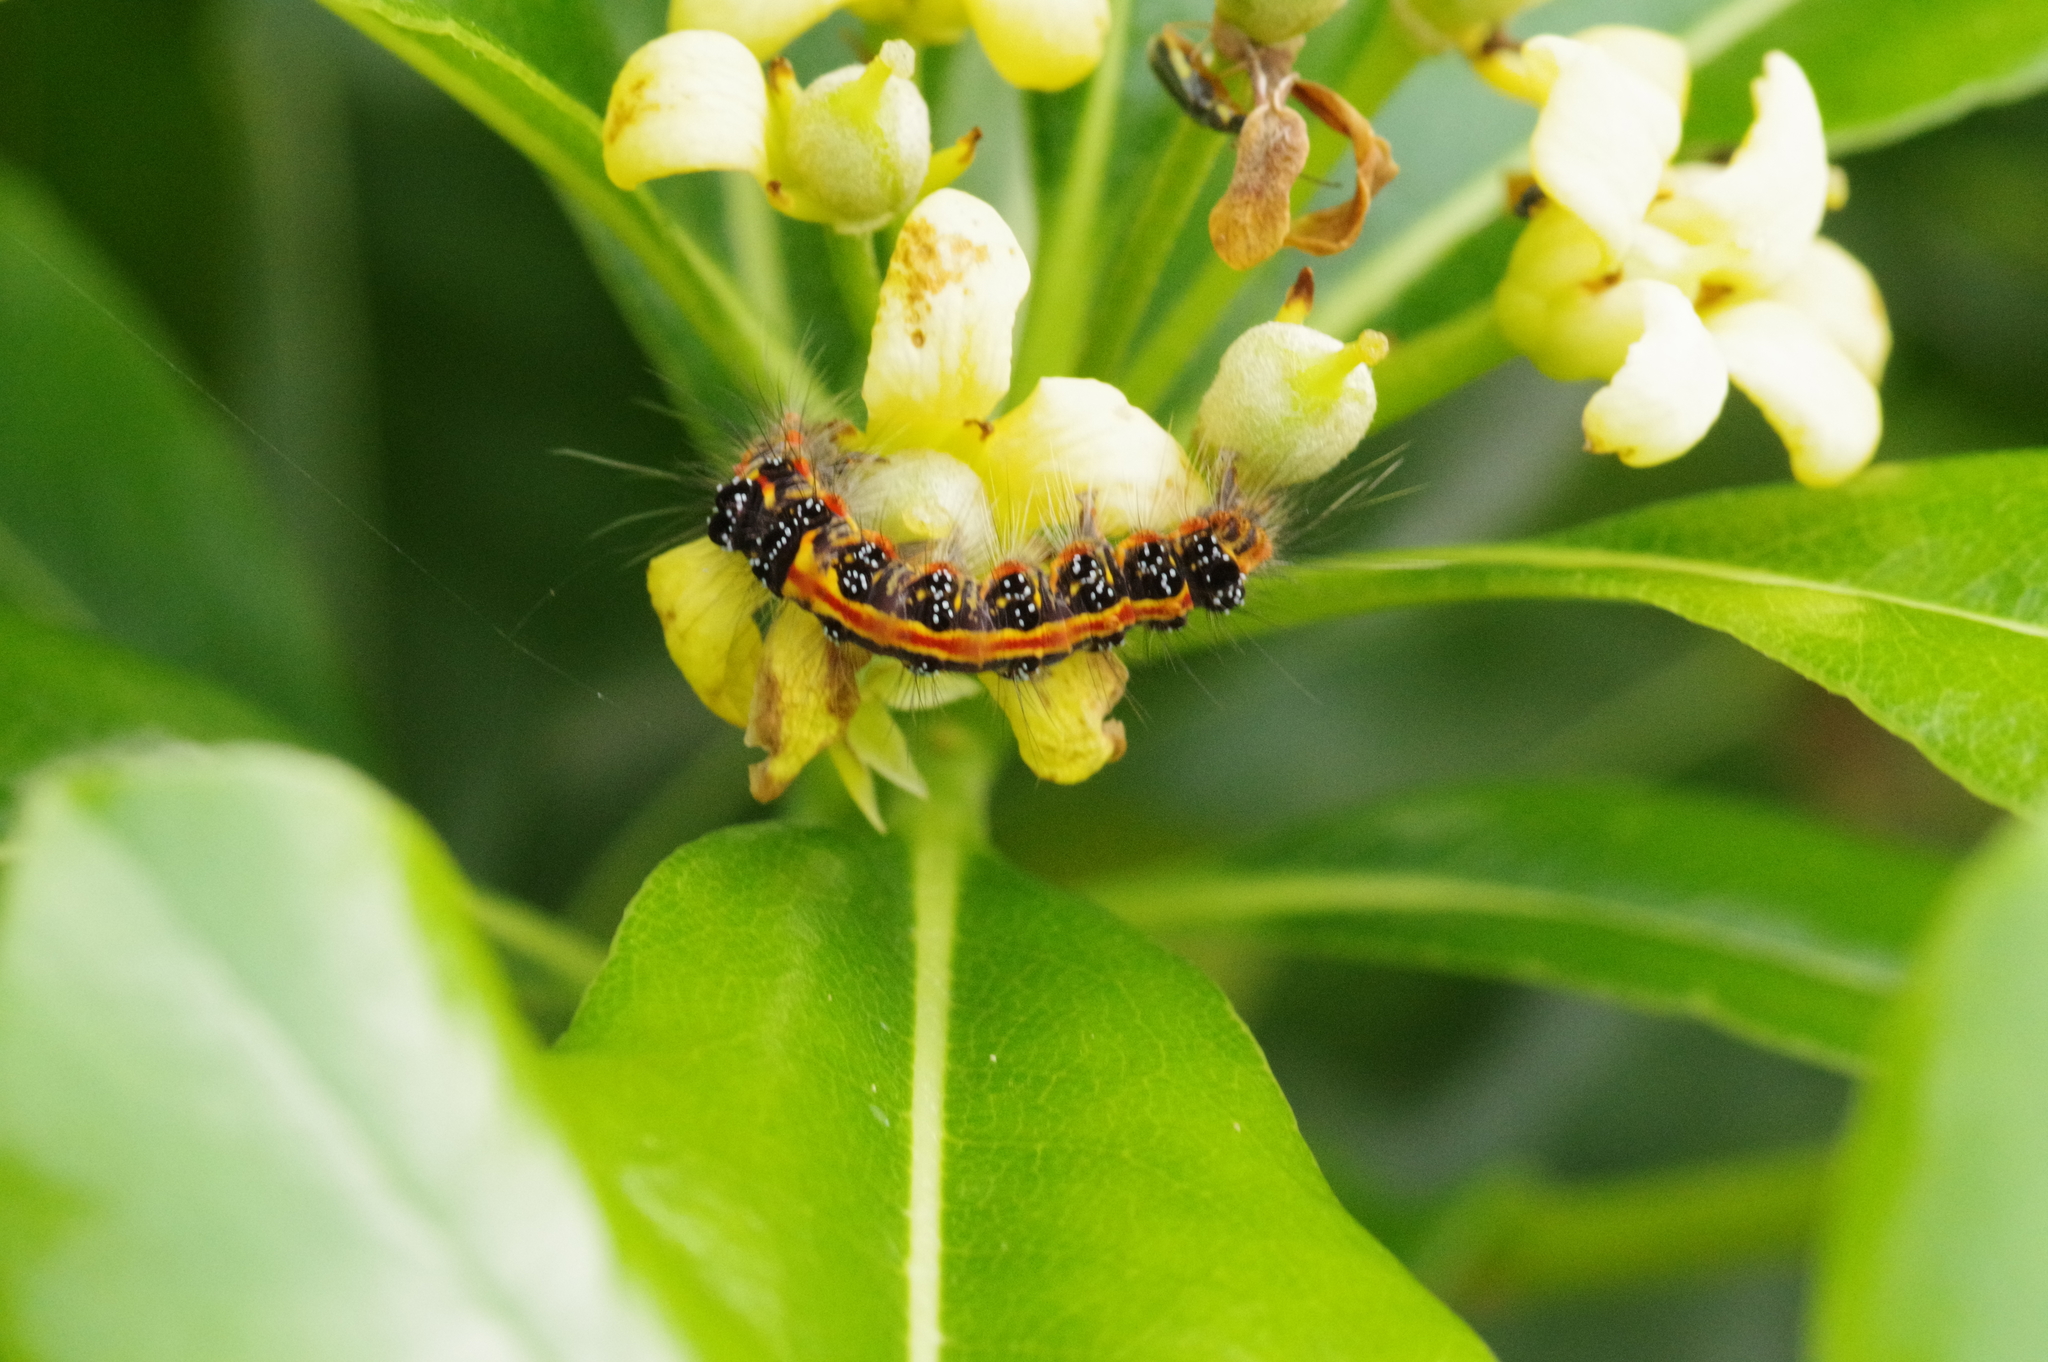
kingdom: Animalia
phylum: Arthropoda
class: Insecta
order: Lepidoptera
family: Erebidae
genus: Euproctis
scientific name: Euproctis taiwana
